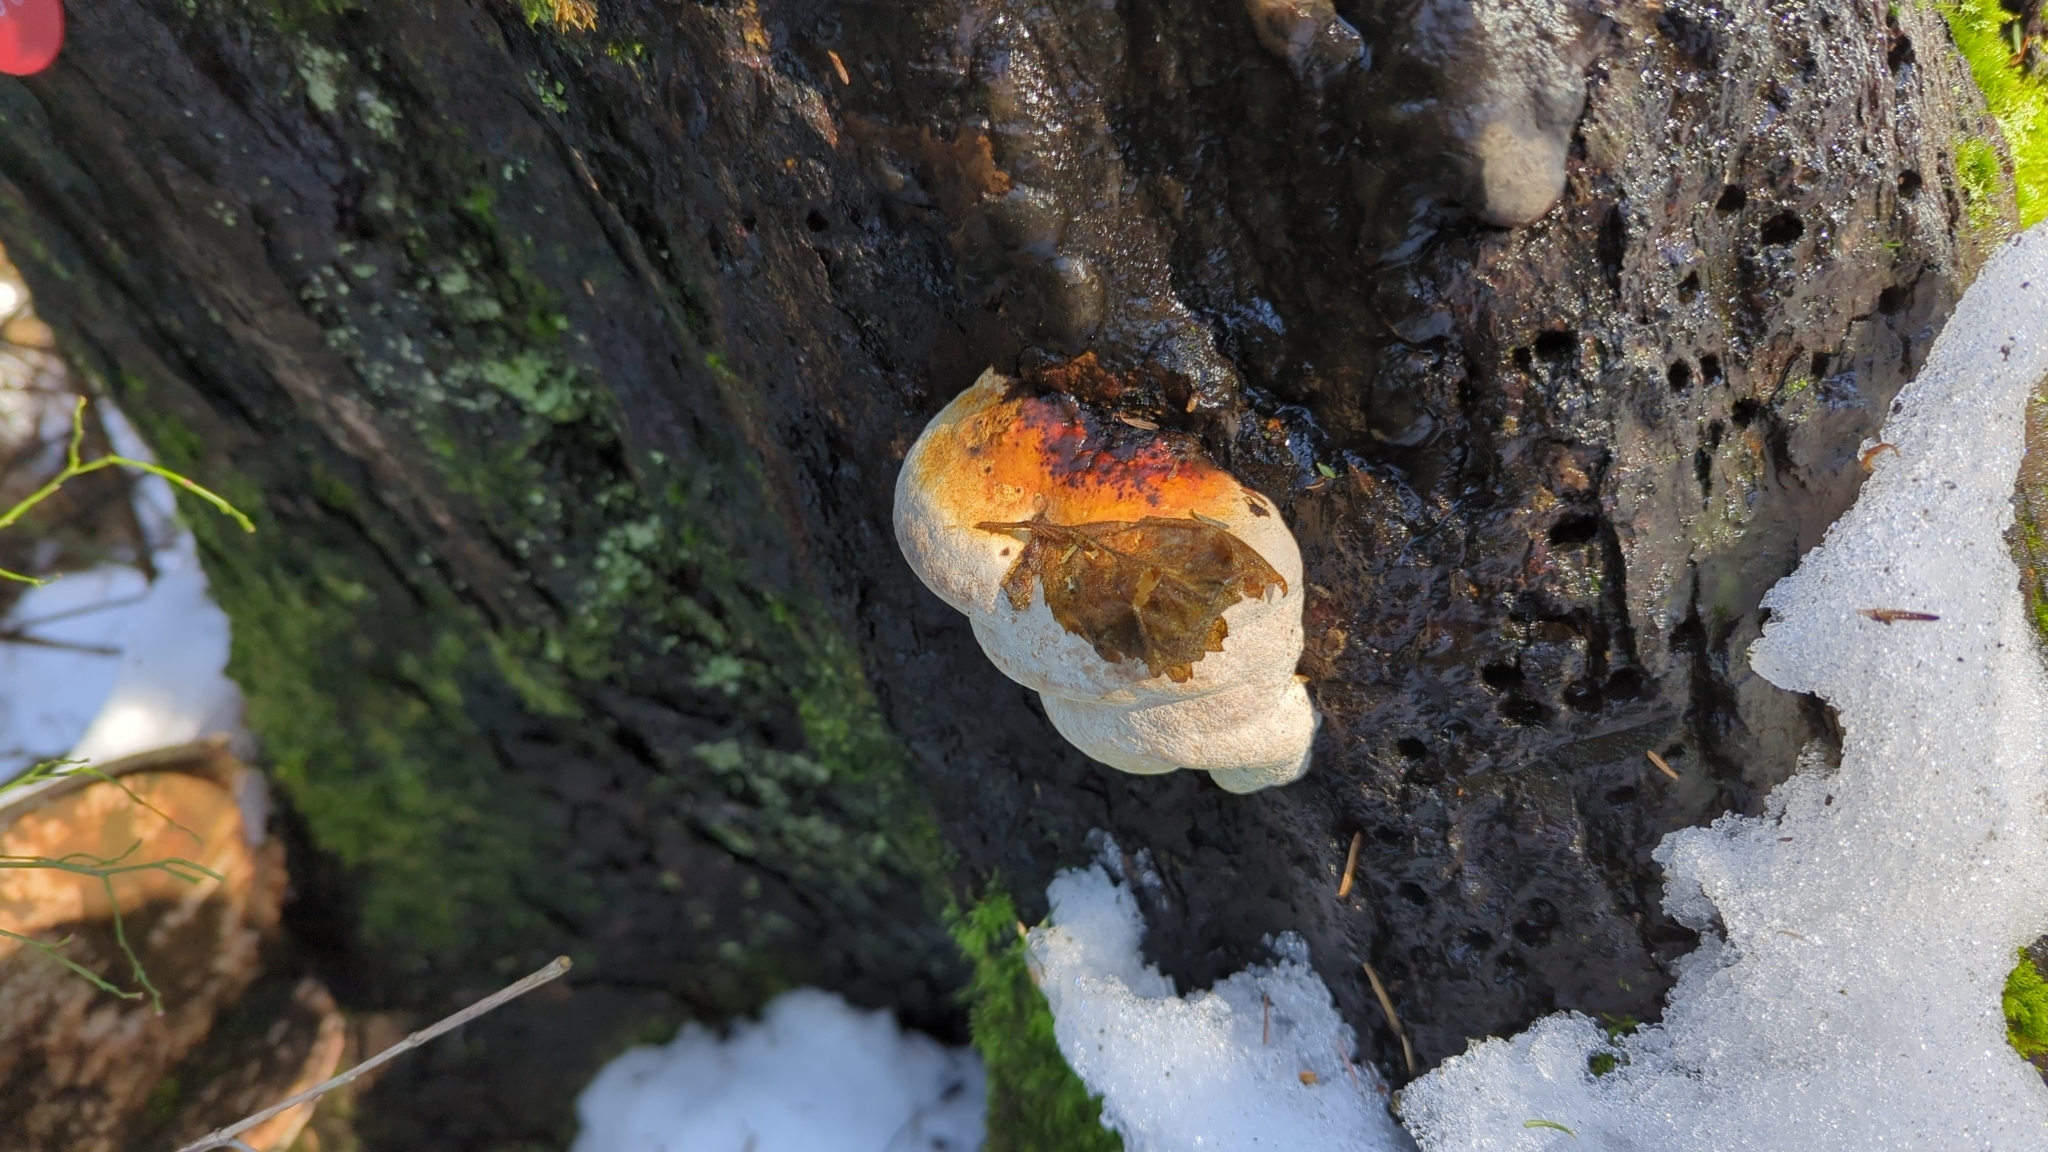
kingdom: Fungi
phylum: Basidiomycota
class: Agaricomycetes
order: Polyporales
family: Fomitopsidaceae
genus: Fomitopsis
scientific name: Fomitopsis mounceae
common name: Northern red belt
